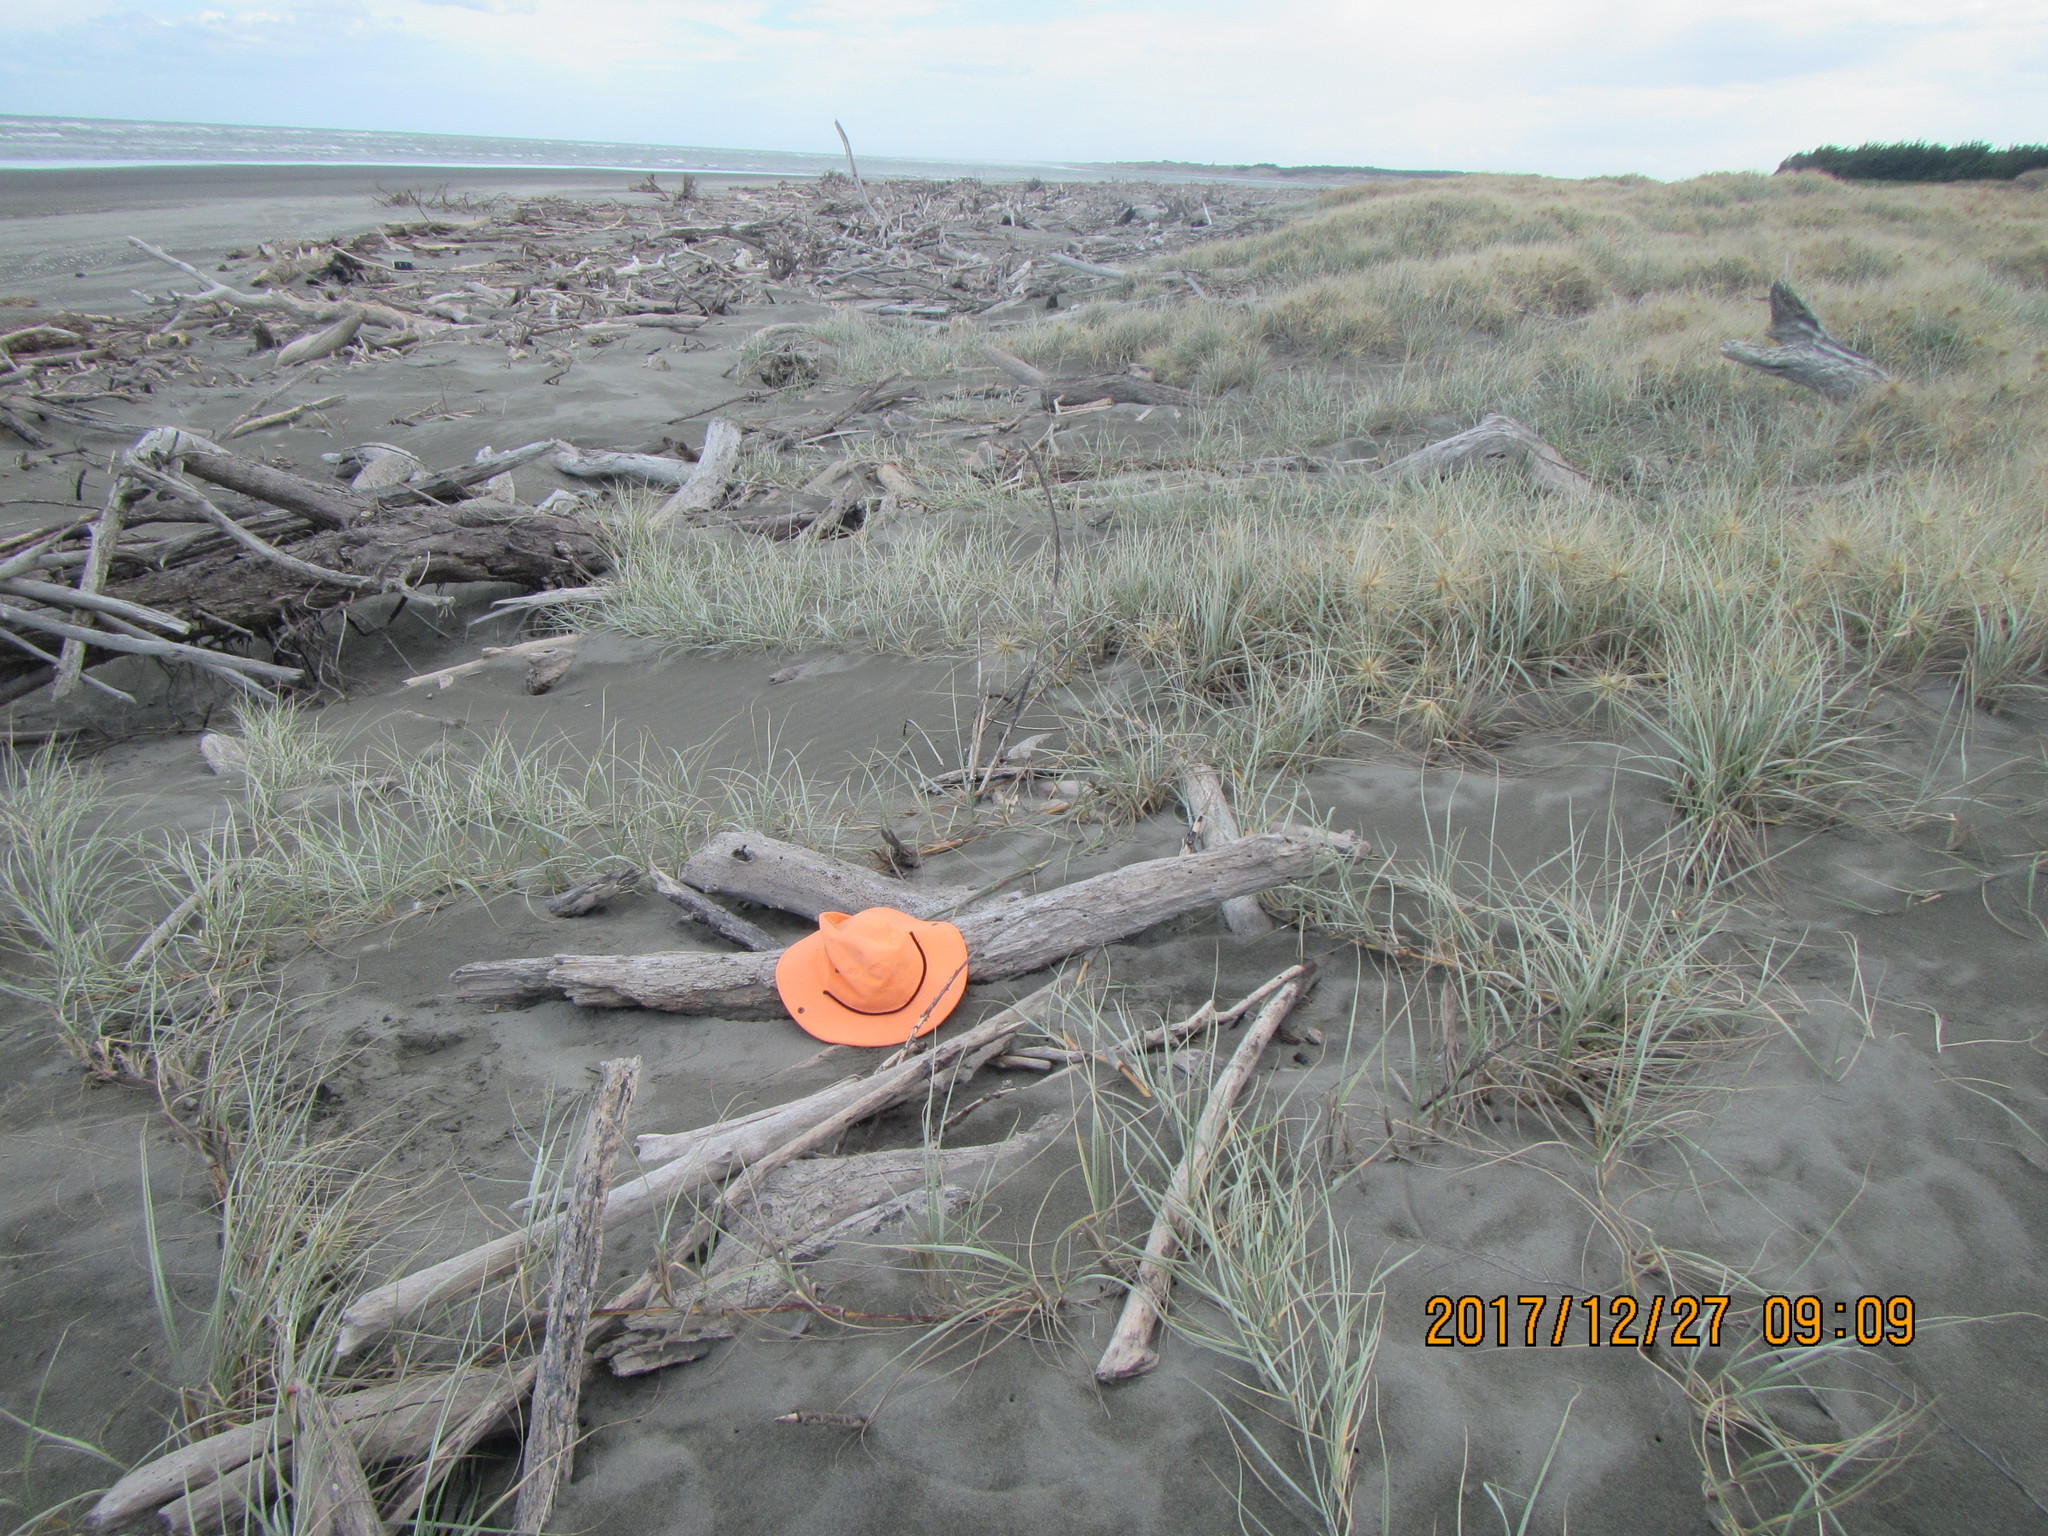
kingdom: Animalia
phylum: Arthropoda
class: Arachnida
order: Araneae
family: Theridiidae
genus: Steatoda
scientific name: Steatoda capensis
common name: Cobweb weaver
